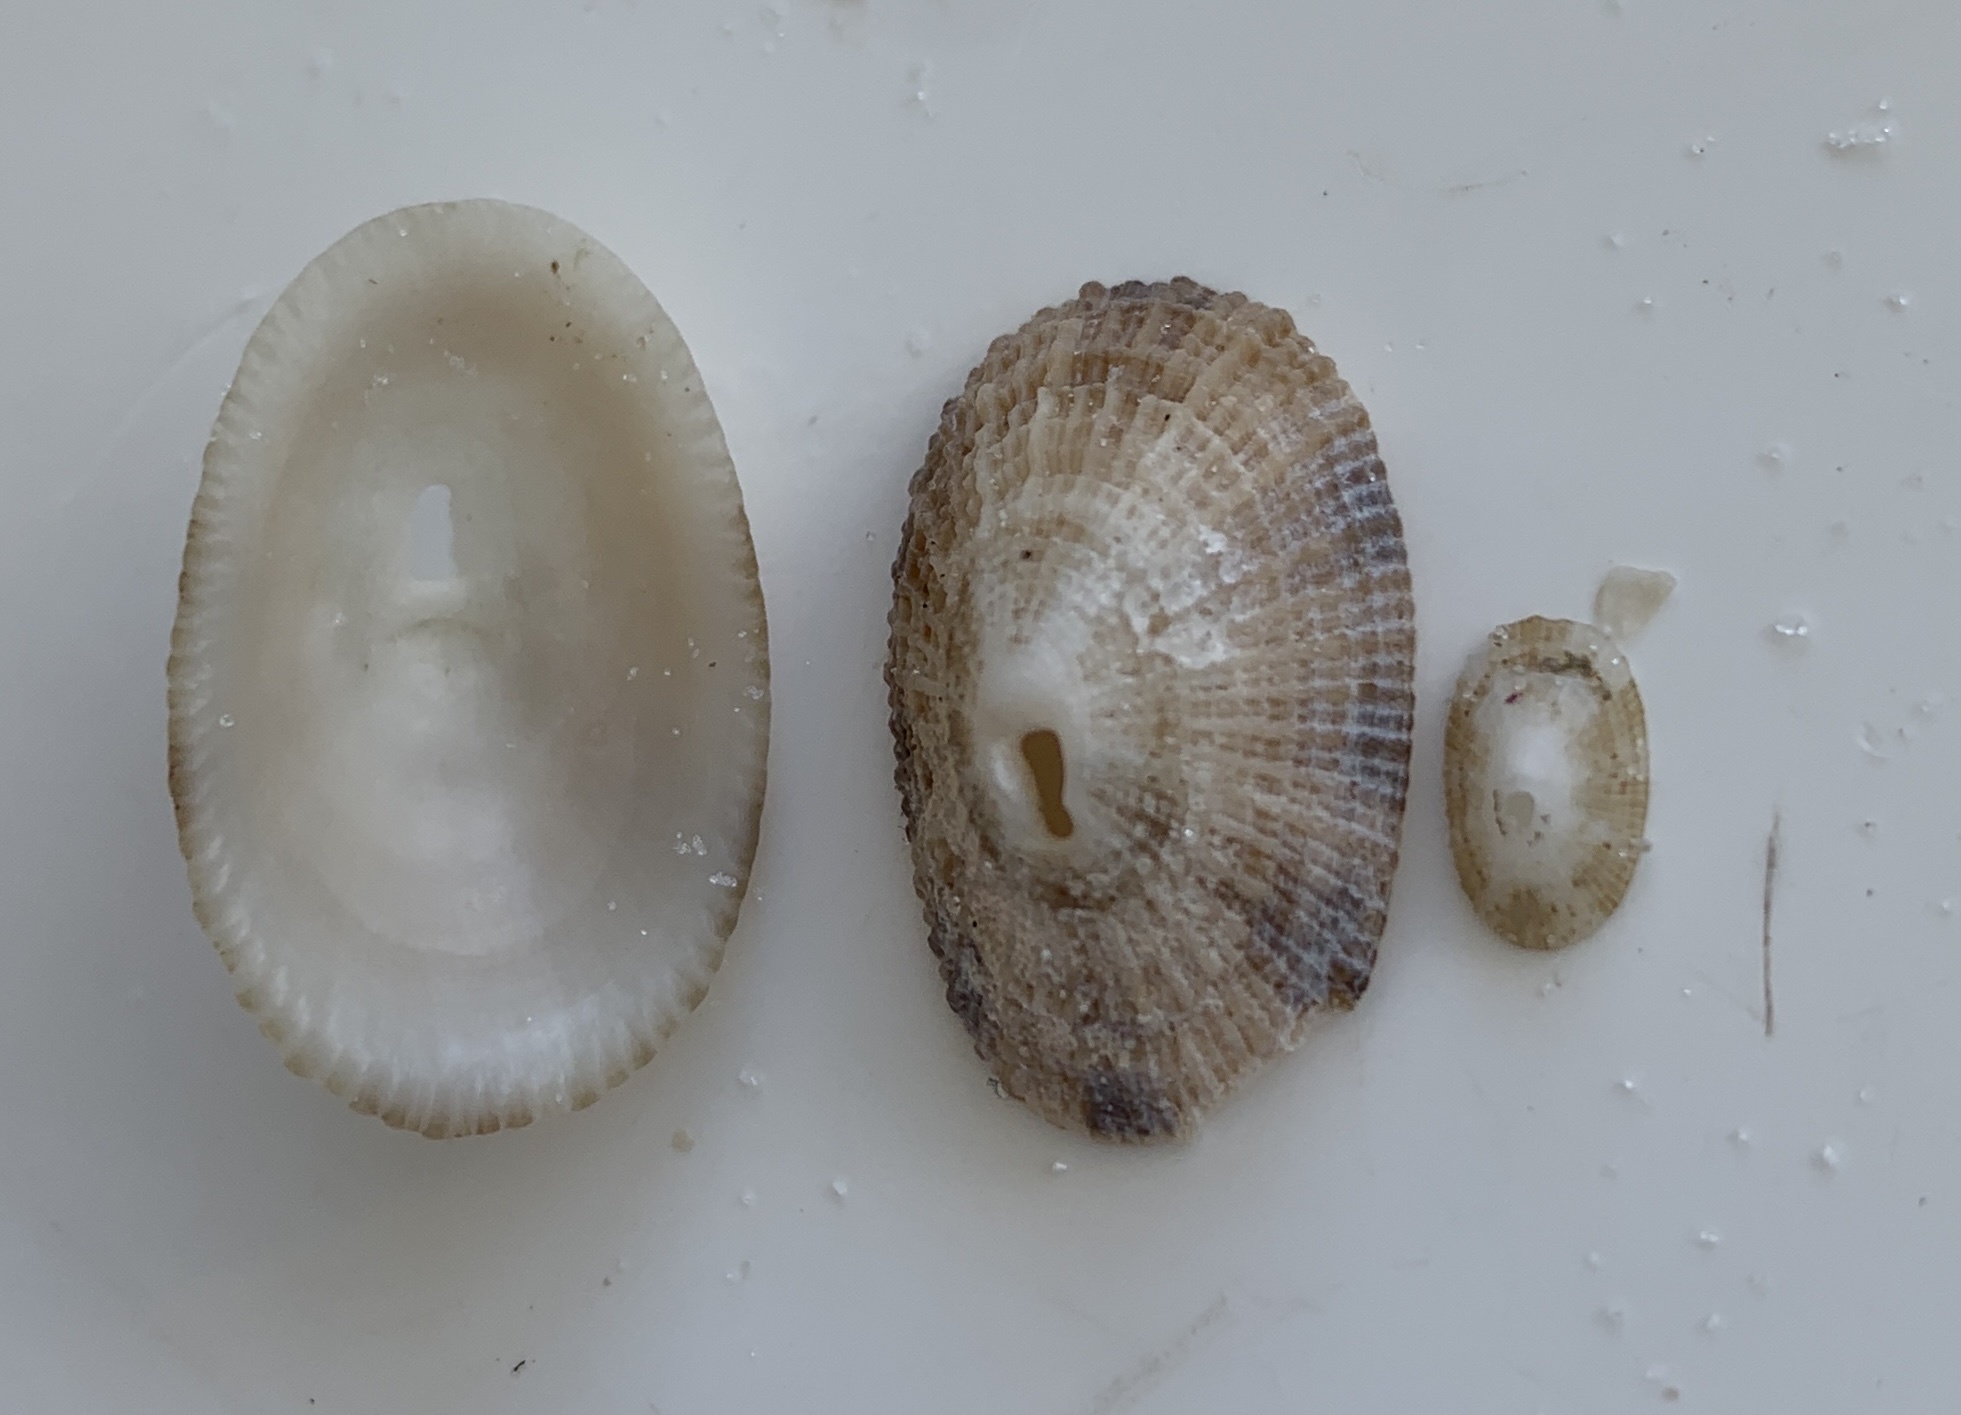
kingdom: Animalia
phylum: Mollusca
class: Gastropoda
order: Lepetellida
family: Fissurellidae
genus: Diodora
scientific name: Diodora cayenensis
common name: Cayenne keyhole limpet
